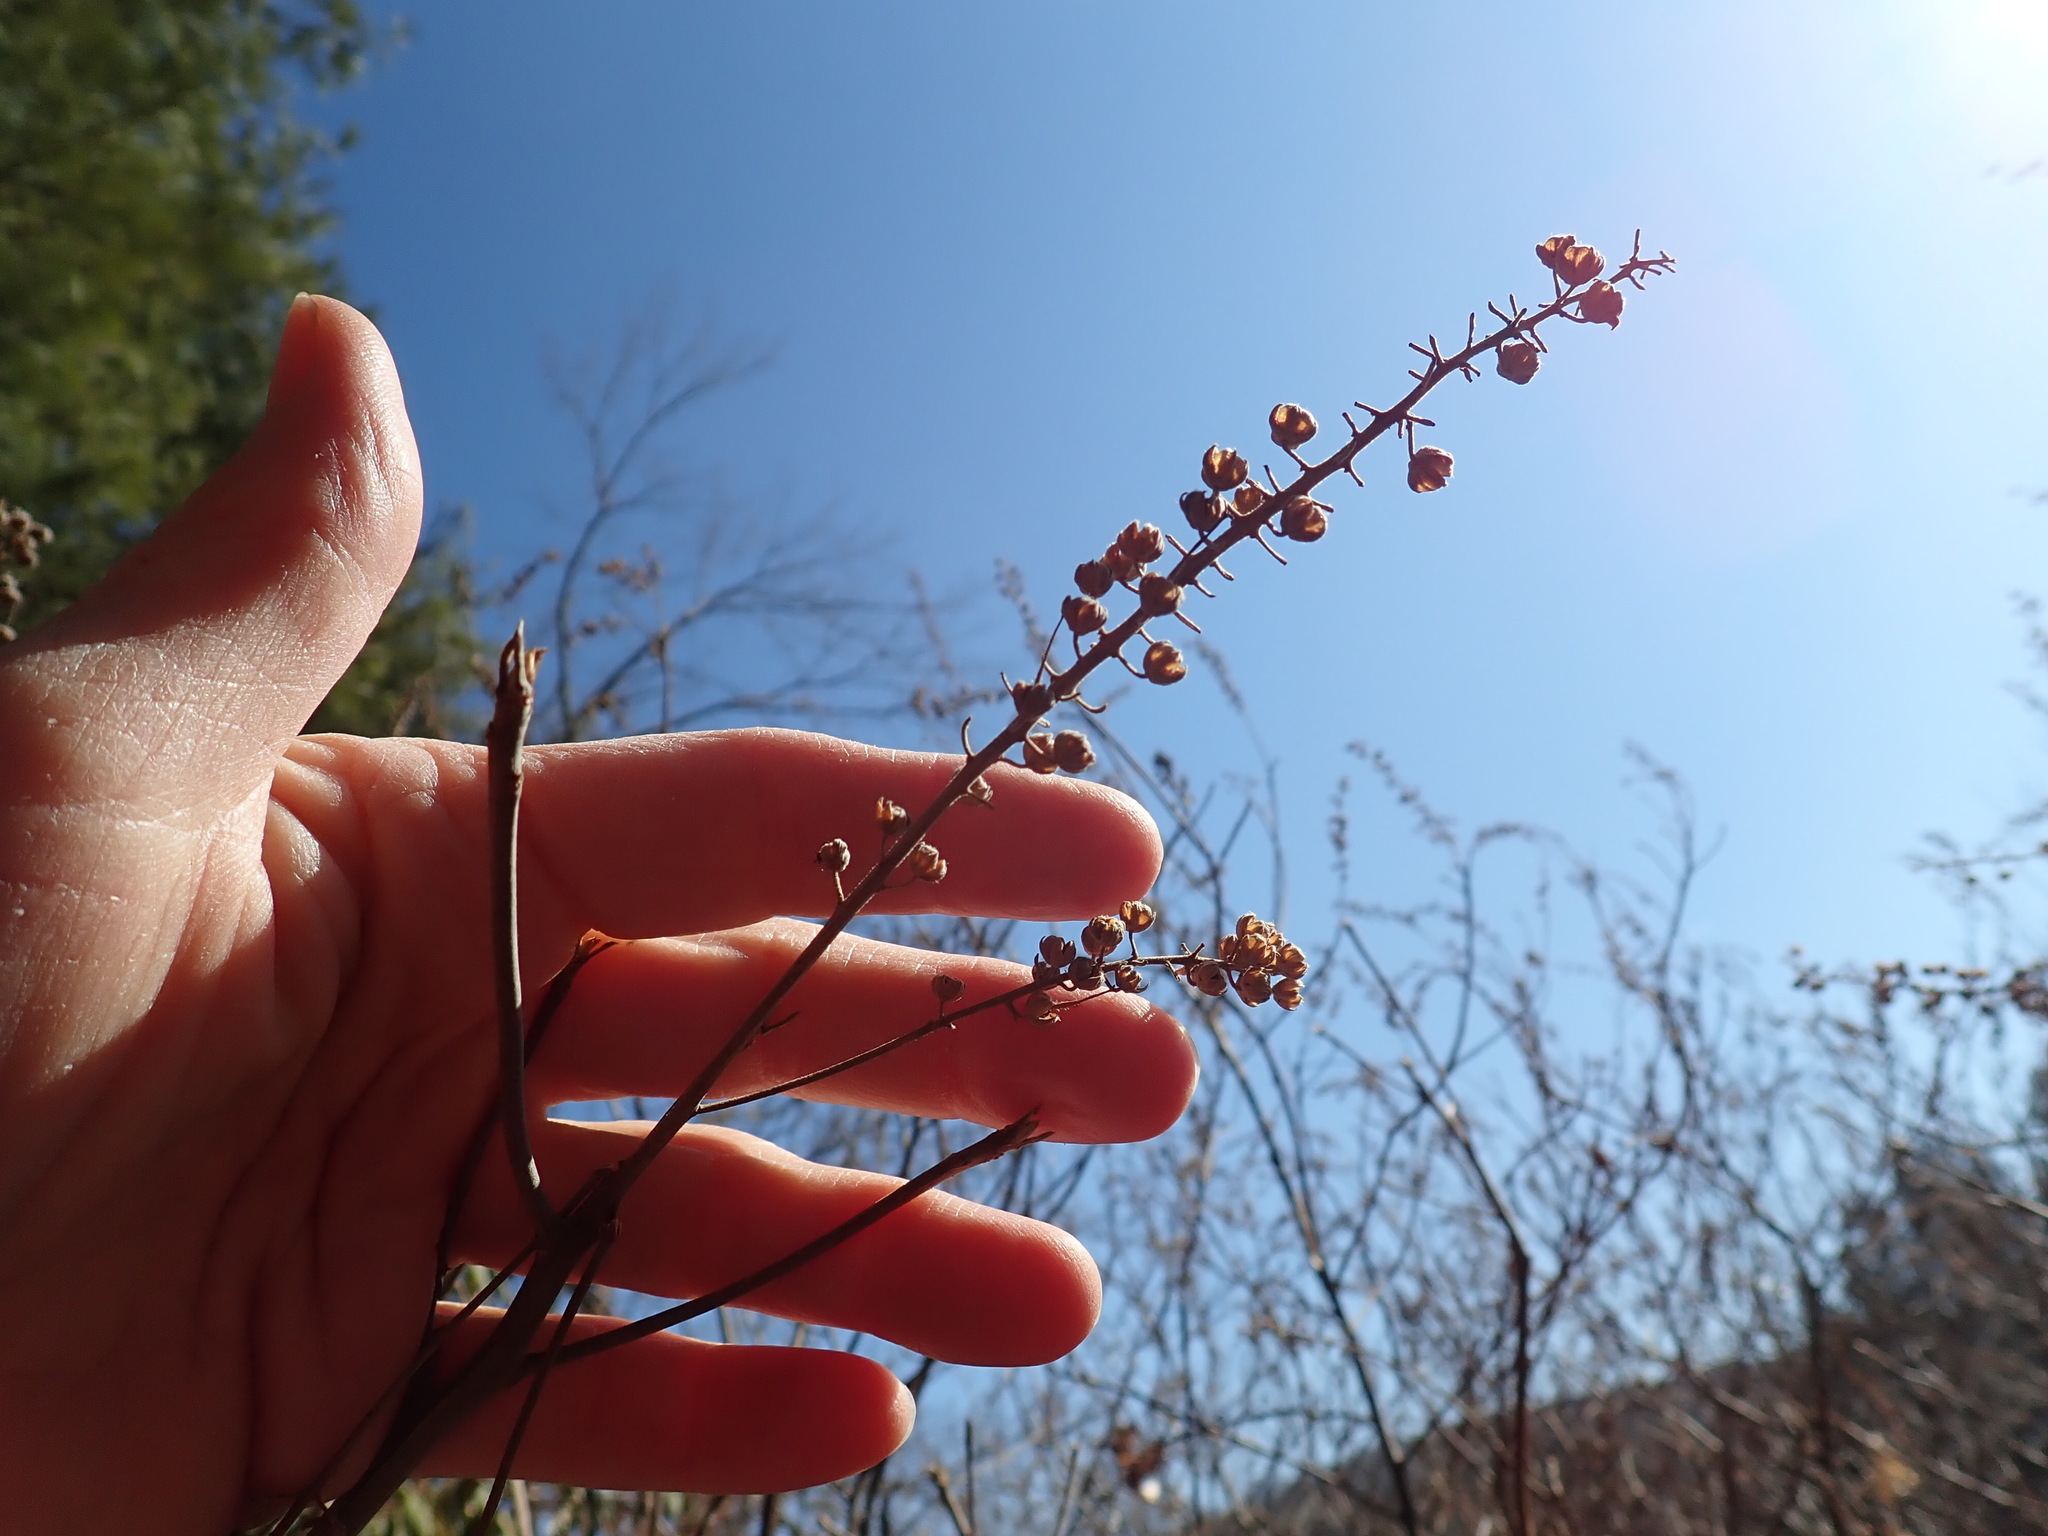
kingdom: Plantae
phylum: Tracheophyta
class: Magnoliopsida
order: Ericales
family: Clethraceae
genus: Clethra
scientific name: Clethra alnifolia
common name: Sweet pepperbush
